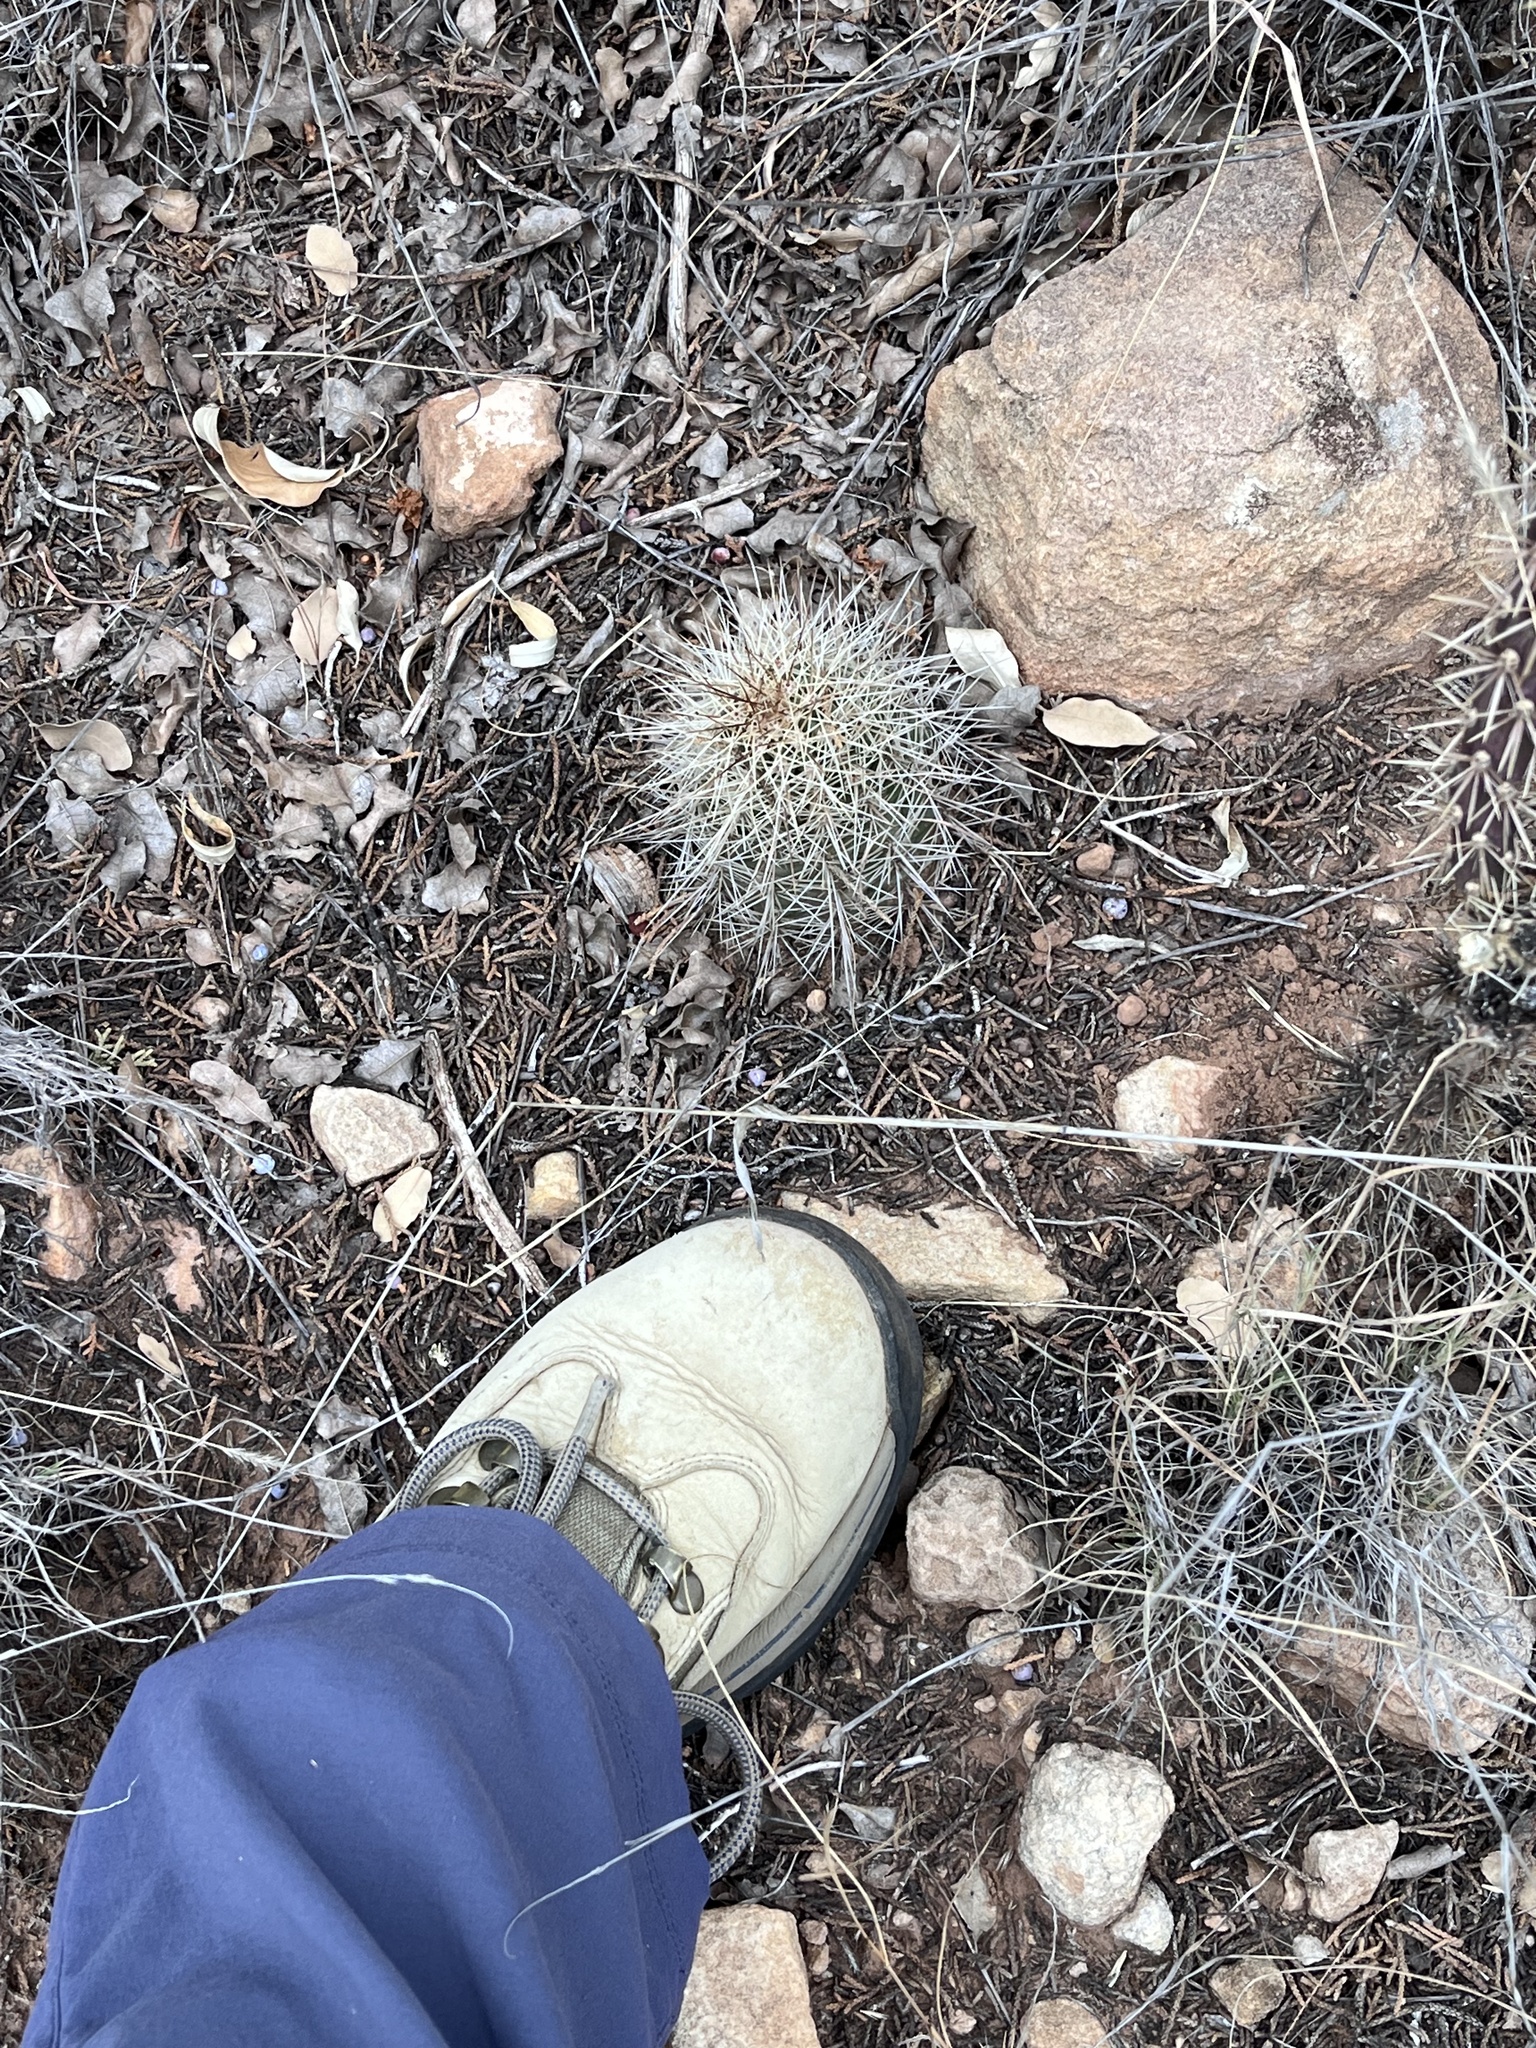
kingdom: Plantae
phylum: Tracheophyta
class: Magnoliopsida
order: Caryophyllales
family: Cactaceae
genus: Echinocereus
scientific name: Echinocereus coccineus
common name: Scarlet hedgehog cactus
